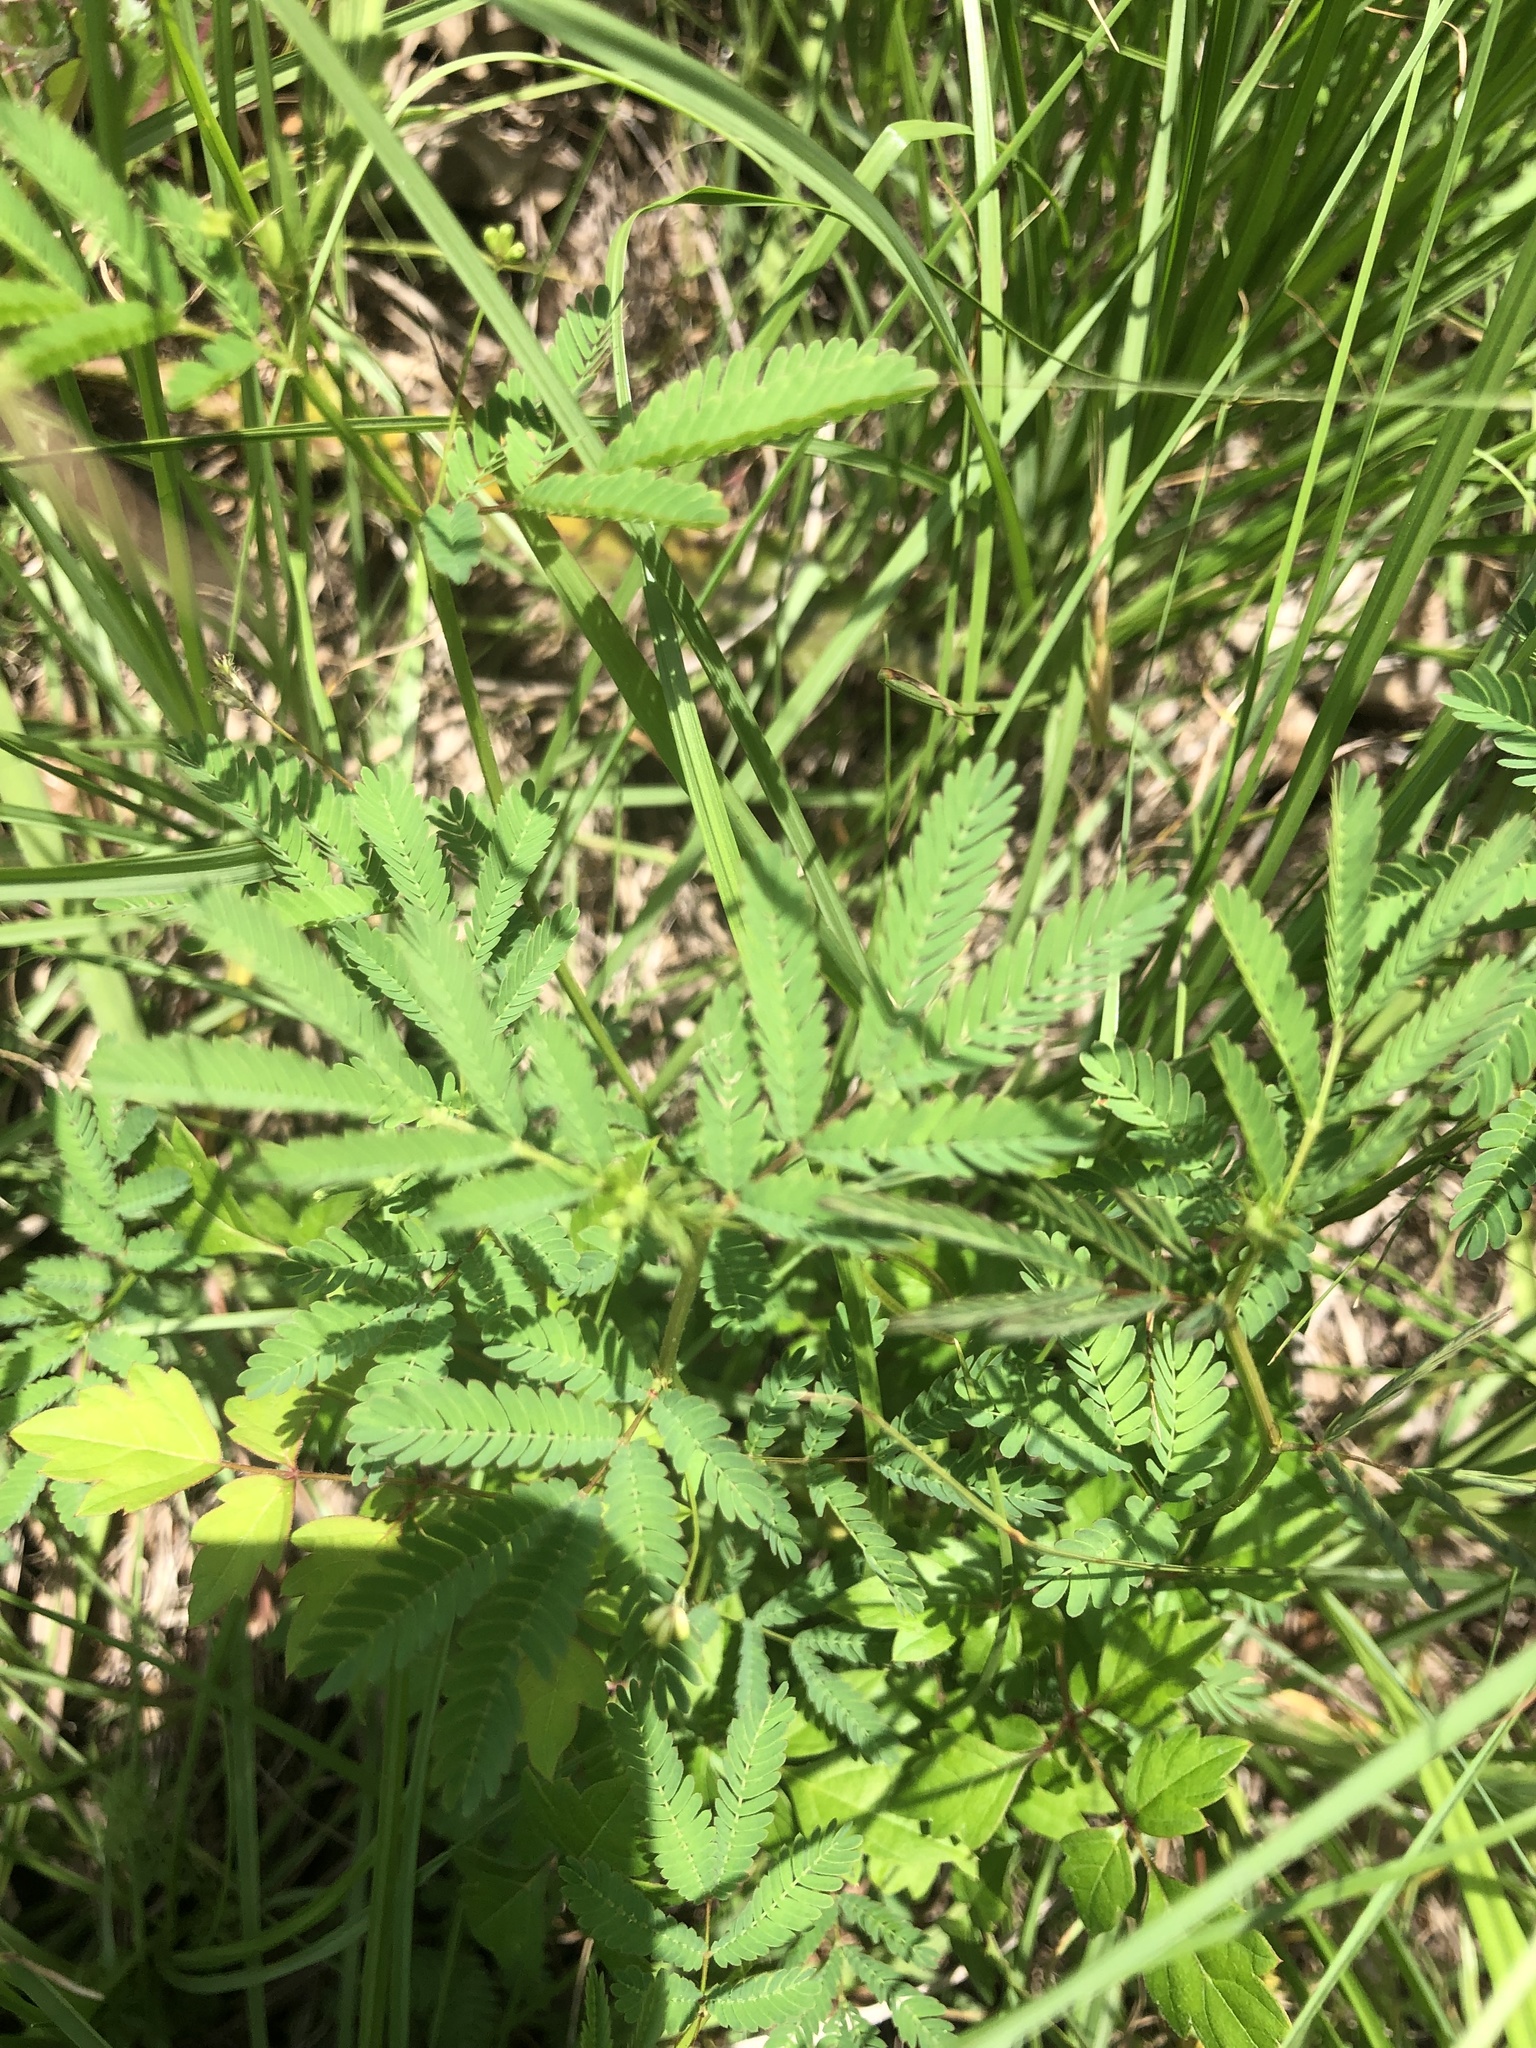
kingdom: Plantae
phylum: Tracheophyta
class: Magnoliopsida
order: Fabales
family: Fabaceae
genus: Desmanthus
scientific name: Desmanthus illinoensis
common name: Illinois bundle-flower
